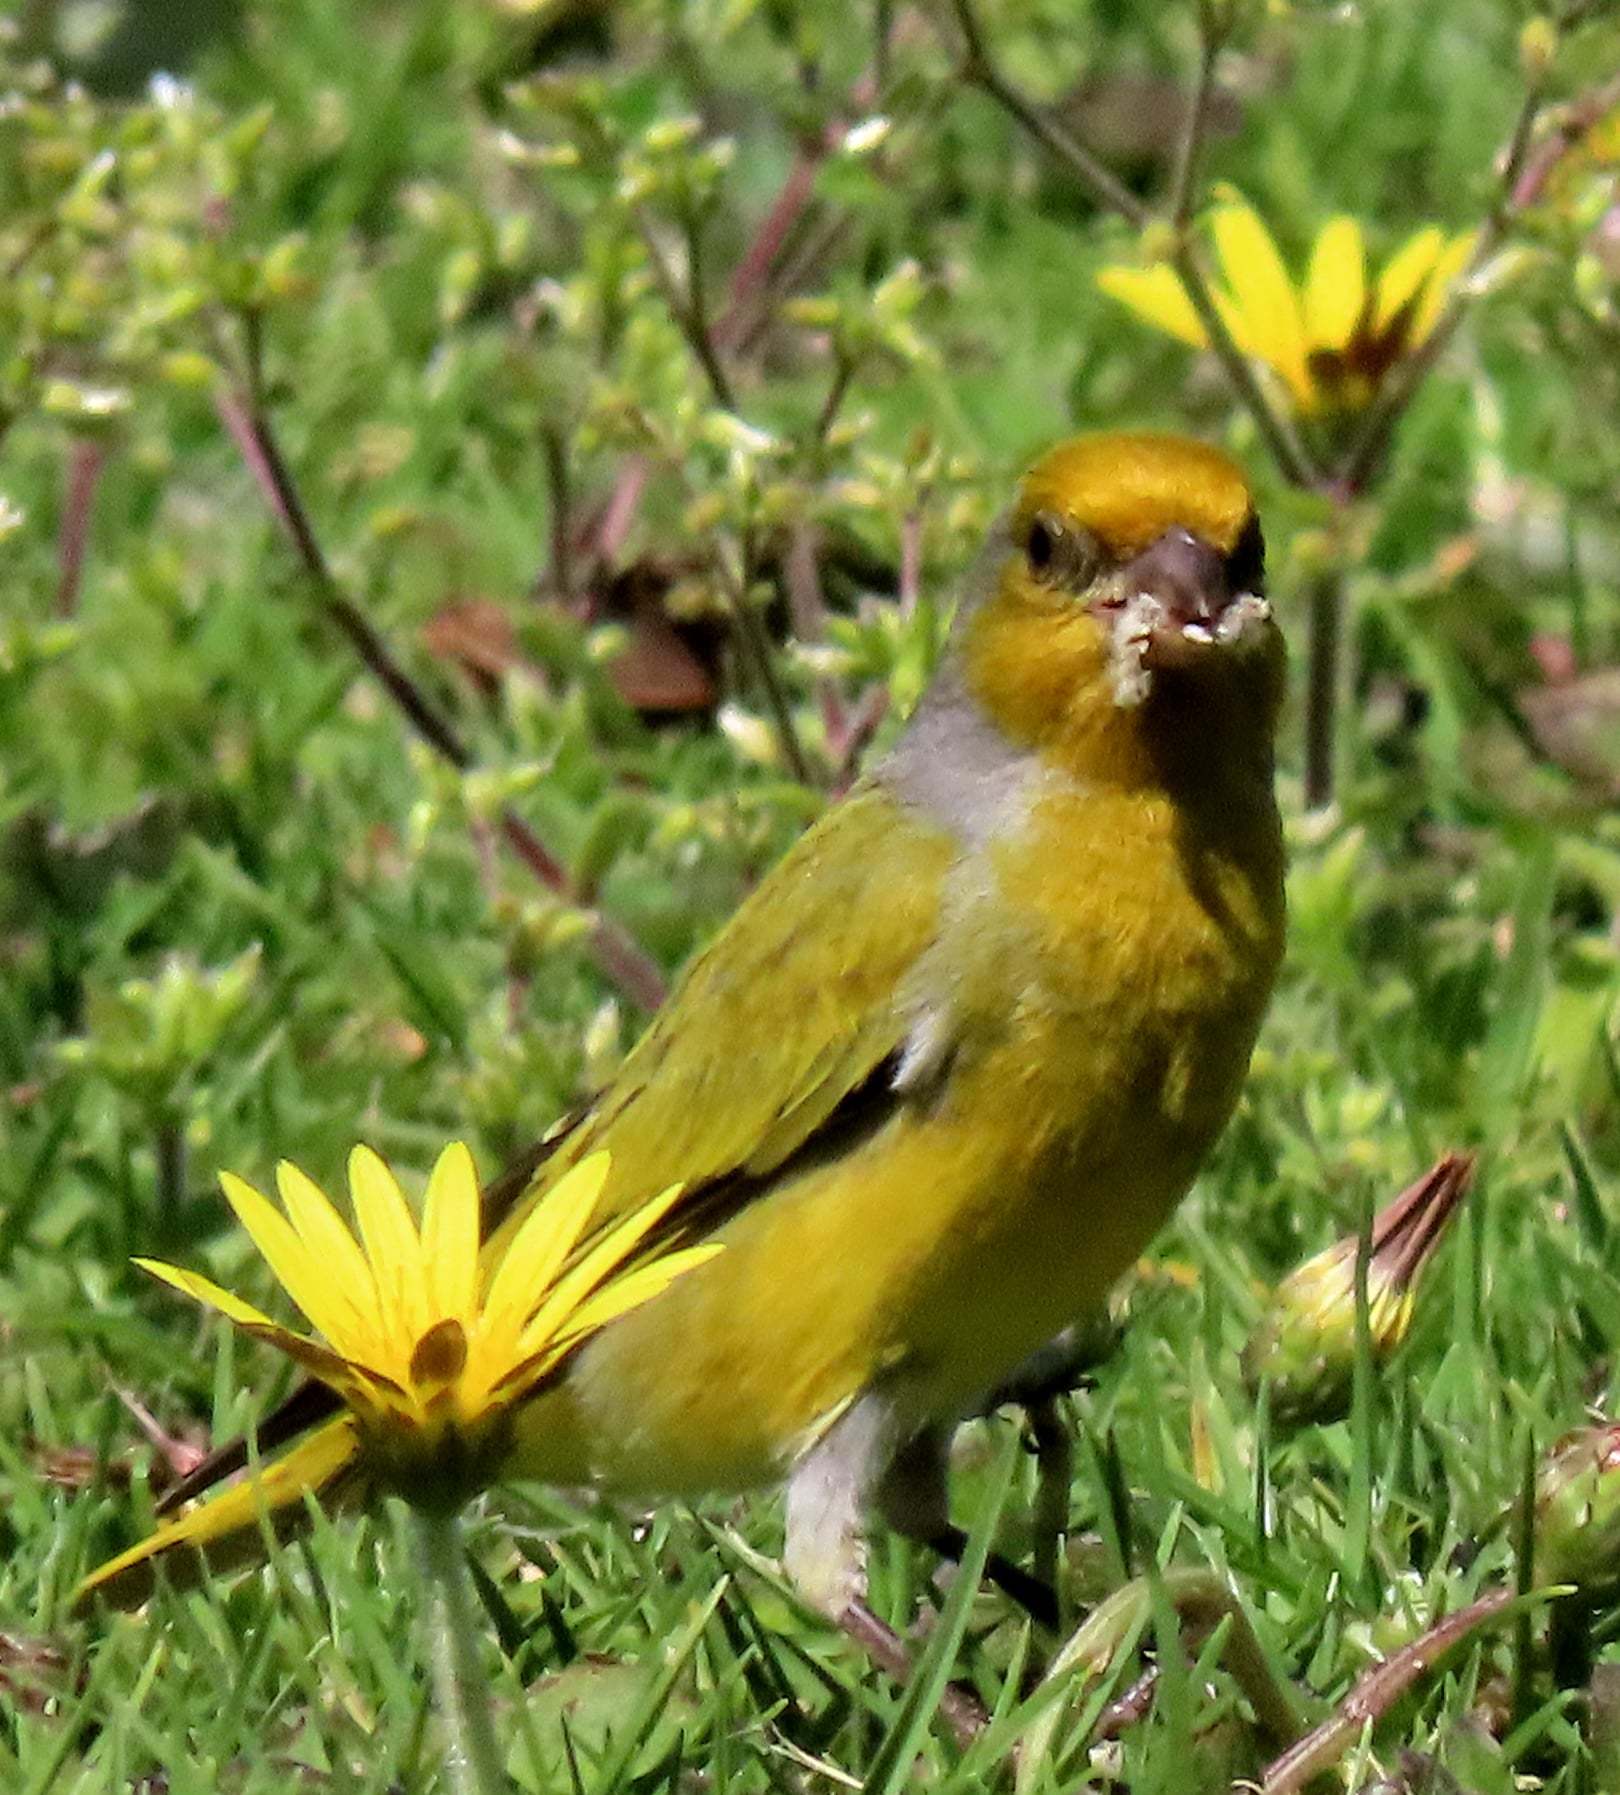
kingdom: Animalia
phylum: Chordata
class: Aves
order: Passeriformes
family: Fringillidae
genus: Serinus
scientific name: Serinus canicollis
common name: Cape canary
